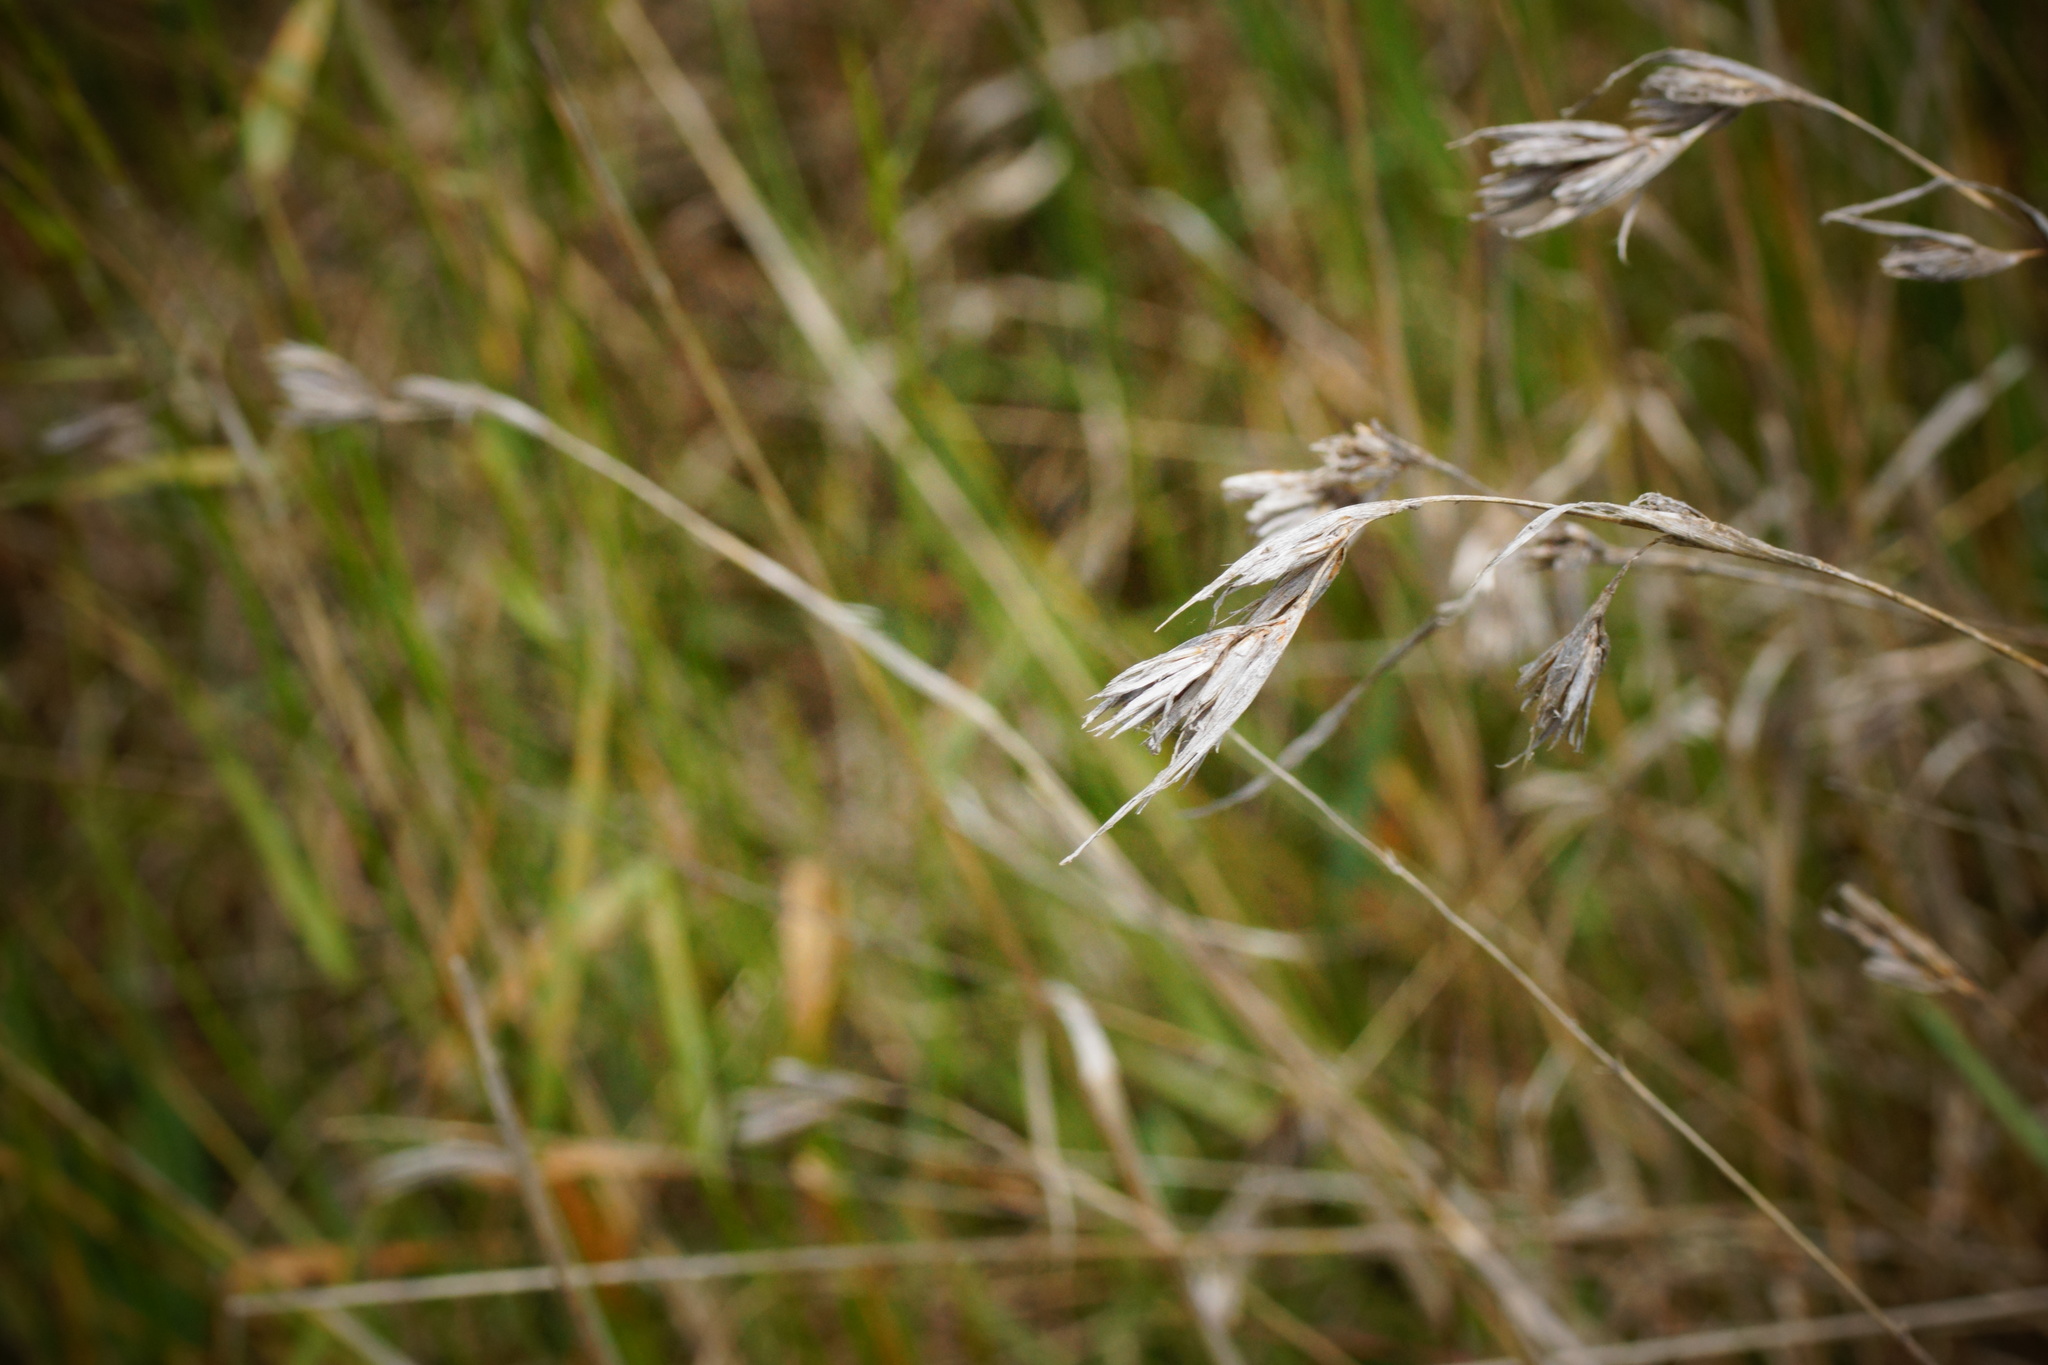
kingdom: Plantae
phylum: Tracheophyta
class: Liliopsida
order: Poales
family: Poaceae
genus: Themeda
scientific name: Themeda triandra
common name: Kangaroo grass
